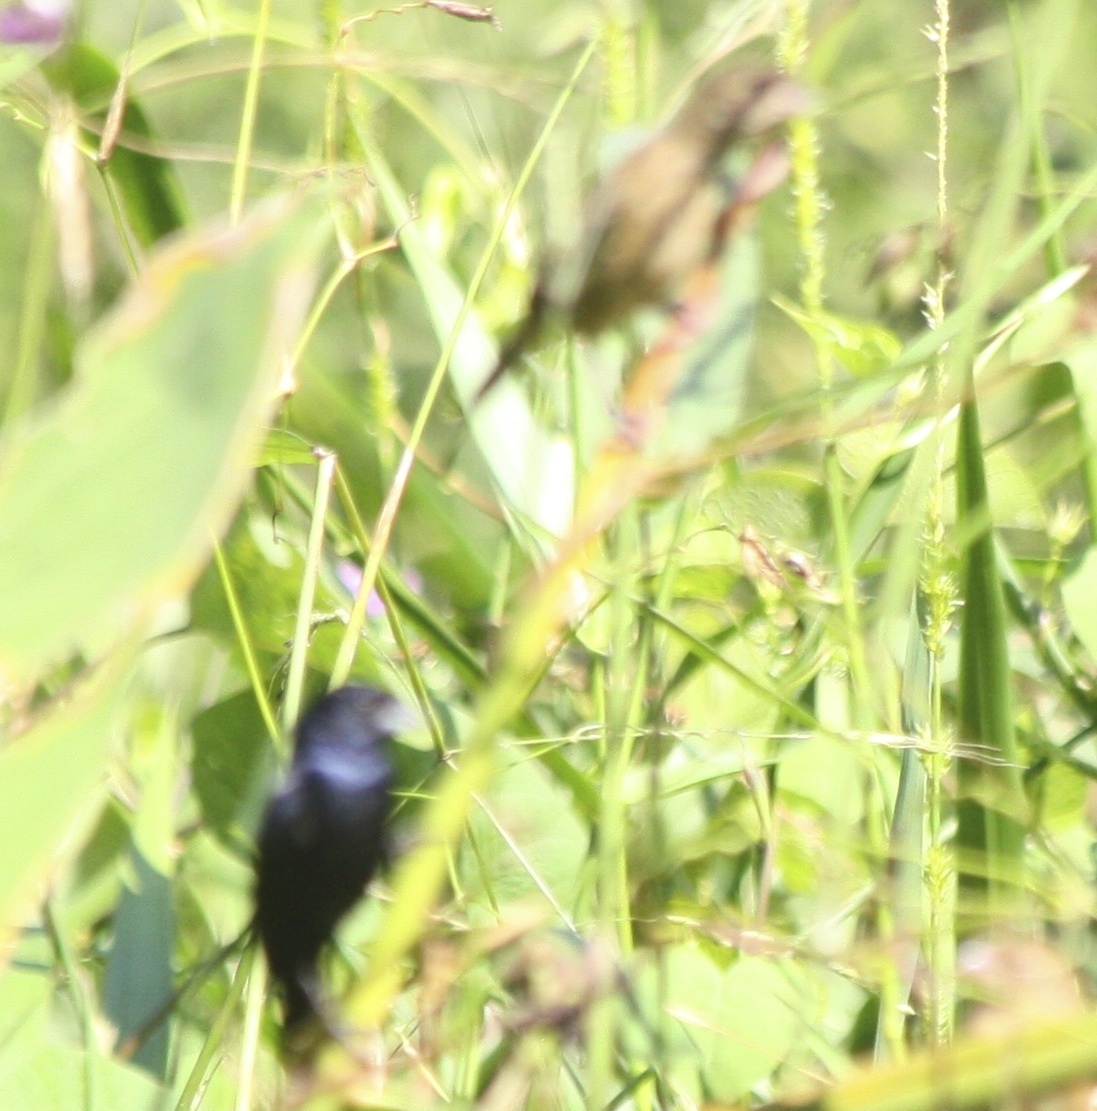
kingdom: Animalia
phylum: Chordata
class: Aves
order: Passeriformes
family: Thraupidae
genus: Volatinia
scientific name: Volatinia jacarina
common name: Blue-black grassquit
